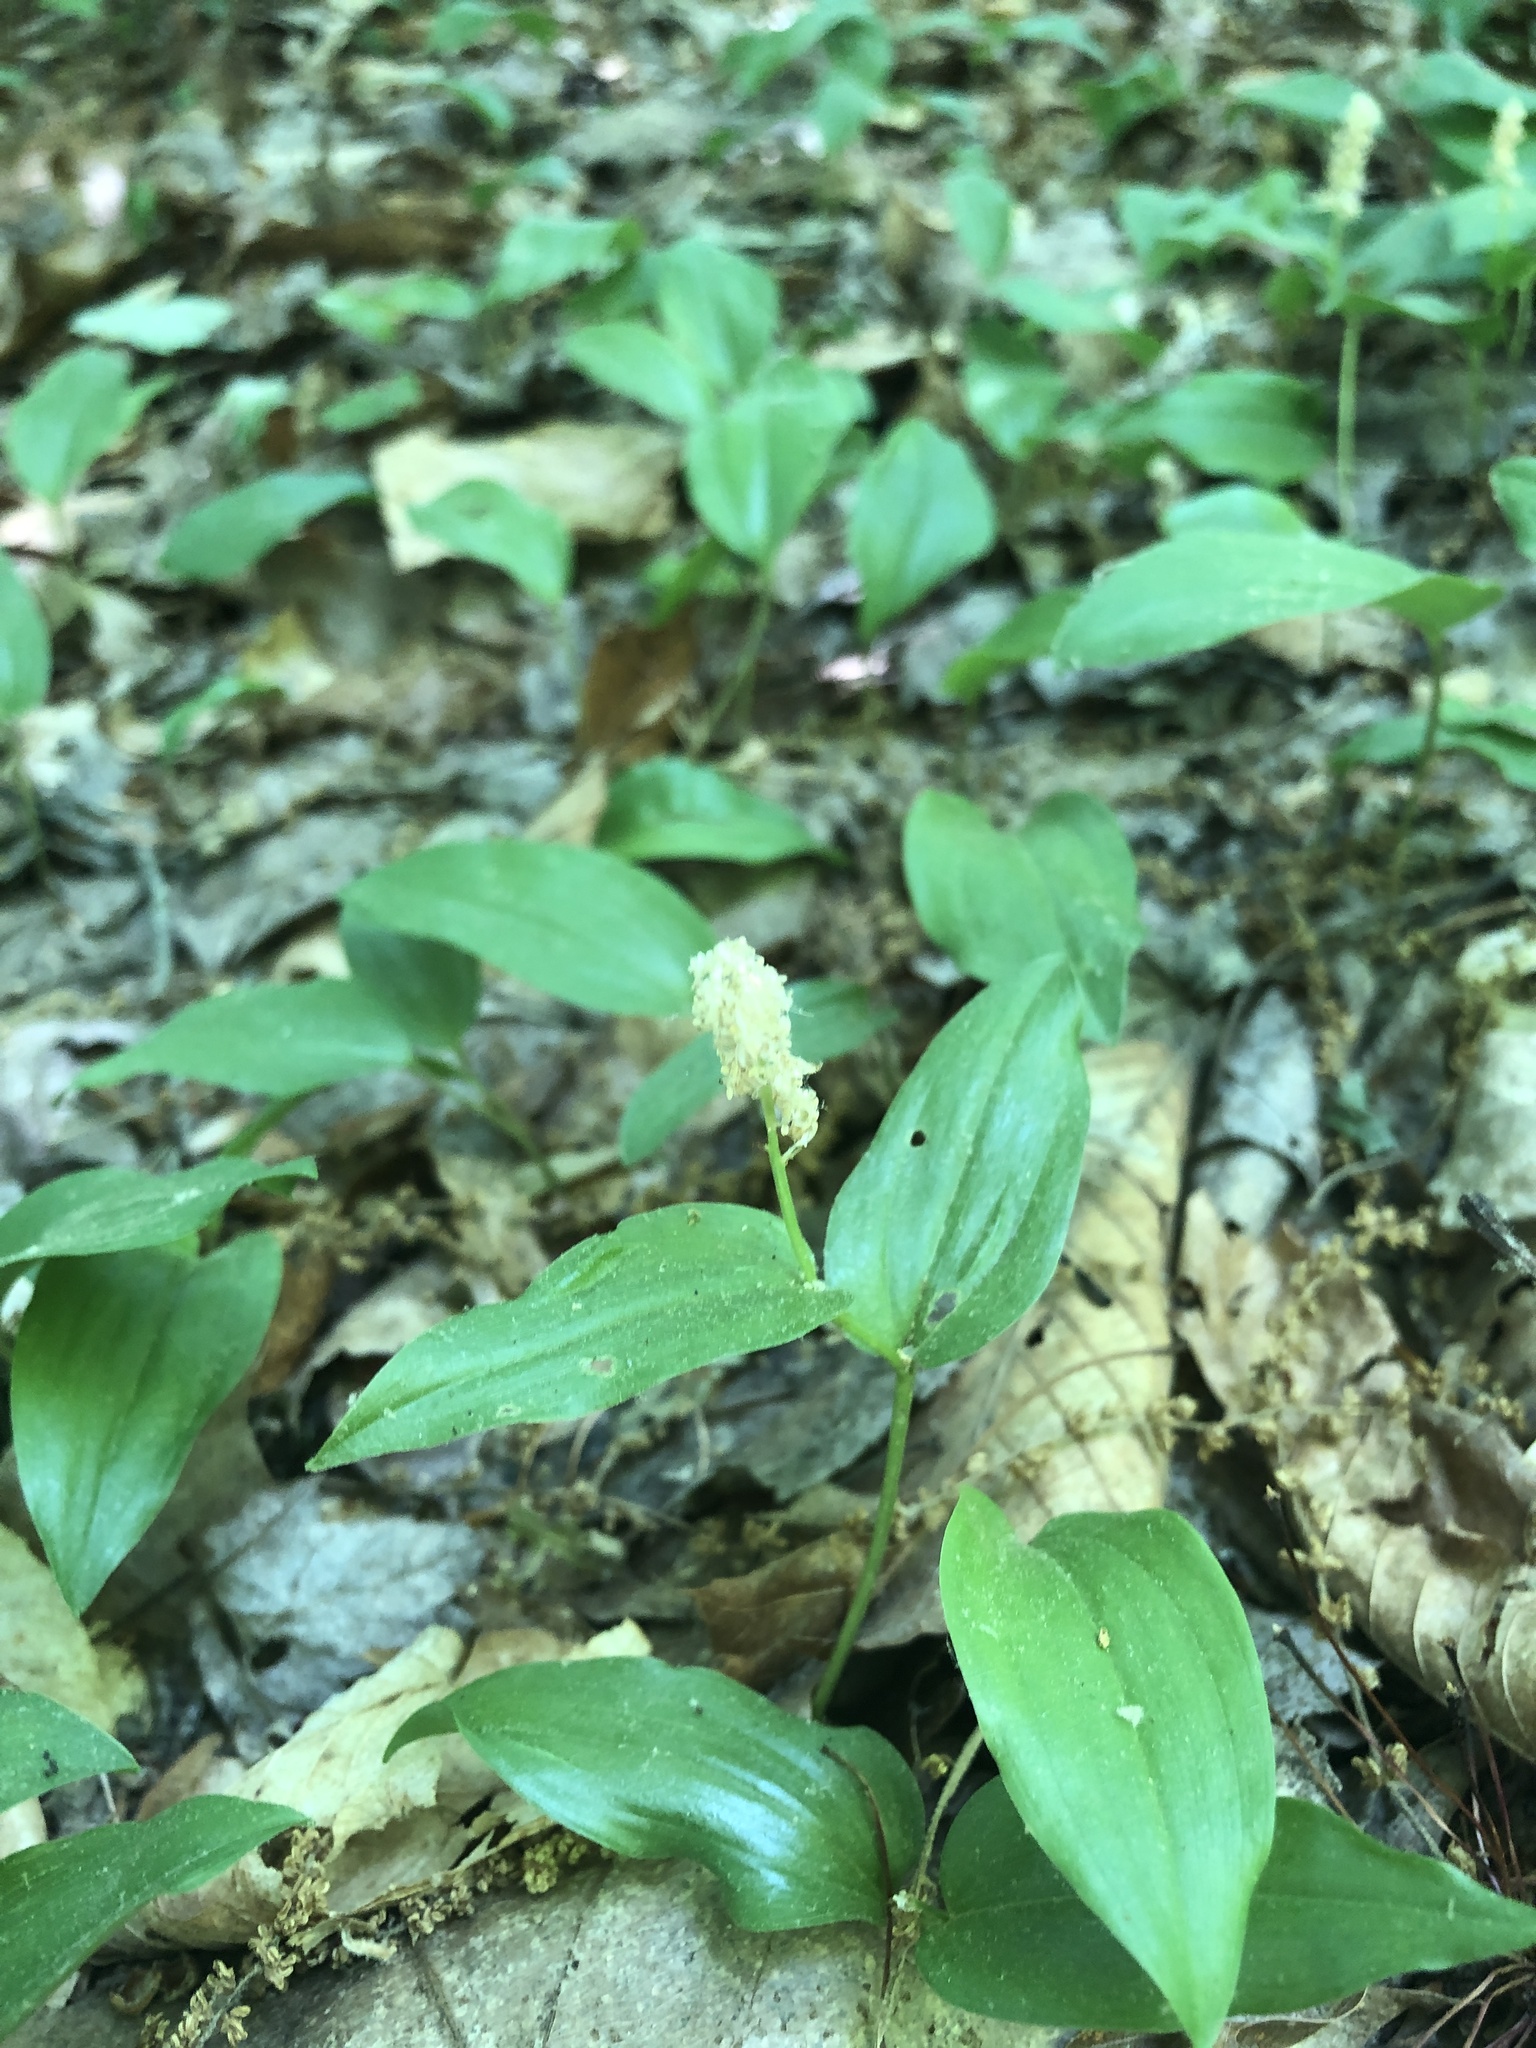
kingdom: Plantae
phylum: Tracheophyta
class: Liliopsida
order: Asparagales
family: Asparagaceae
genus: Maianthemum
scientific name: Maianthemum canadense
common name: False lily-of-the-valley
